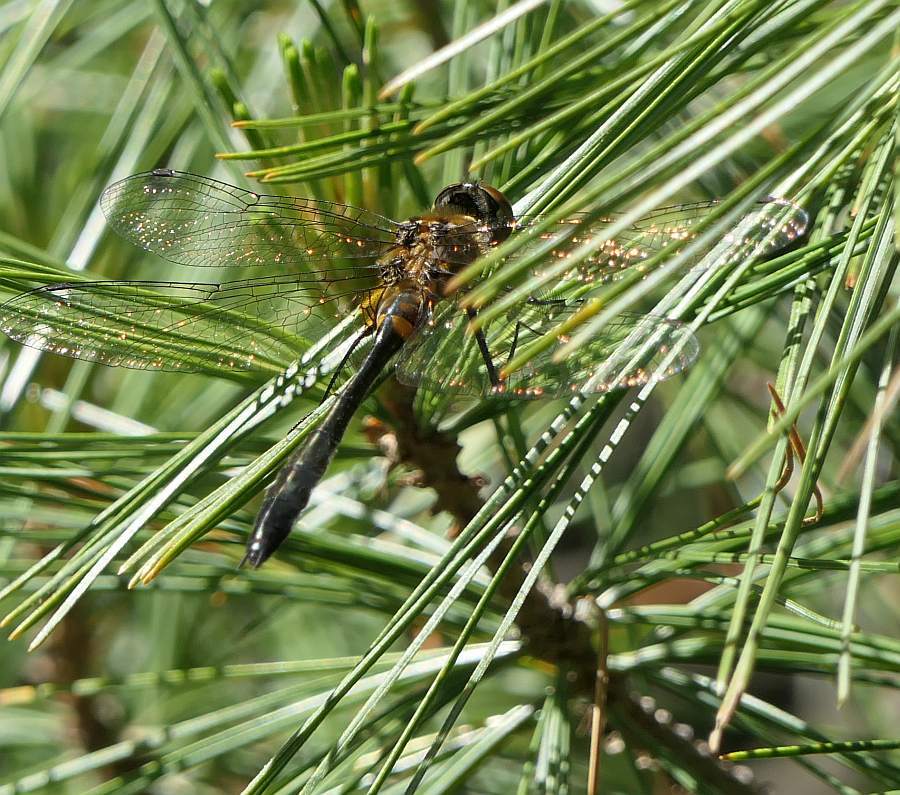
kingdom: Animalia
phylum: Arthropoda
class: Insecta
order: Odonata
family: Corduliidae
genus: Dorocordulia
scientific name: Dorocordulia libera
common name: Racket-tailed emerald
